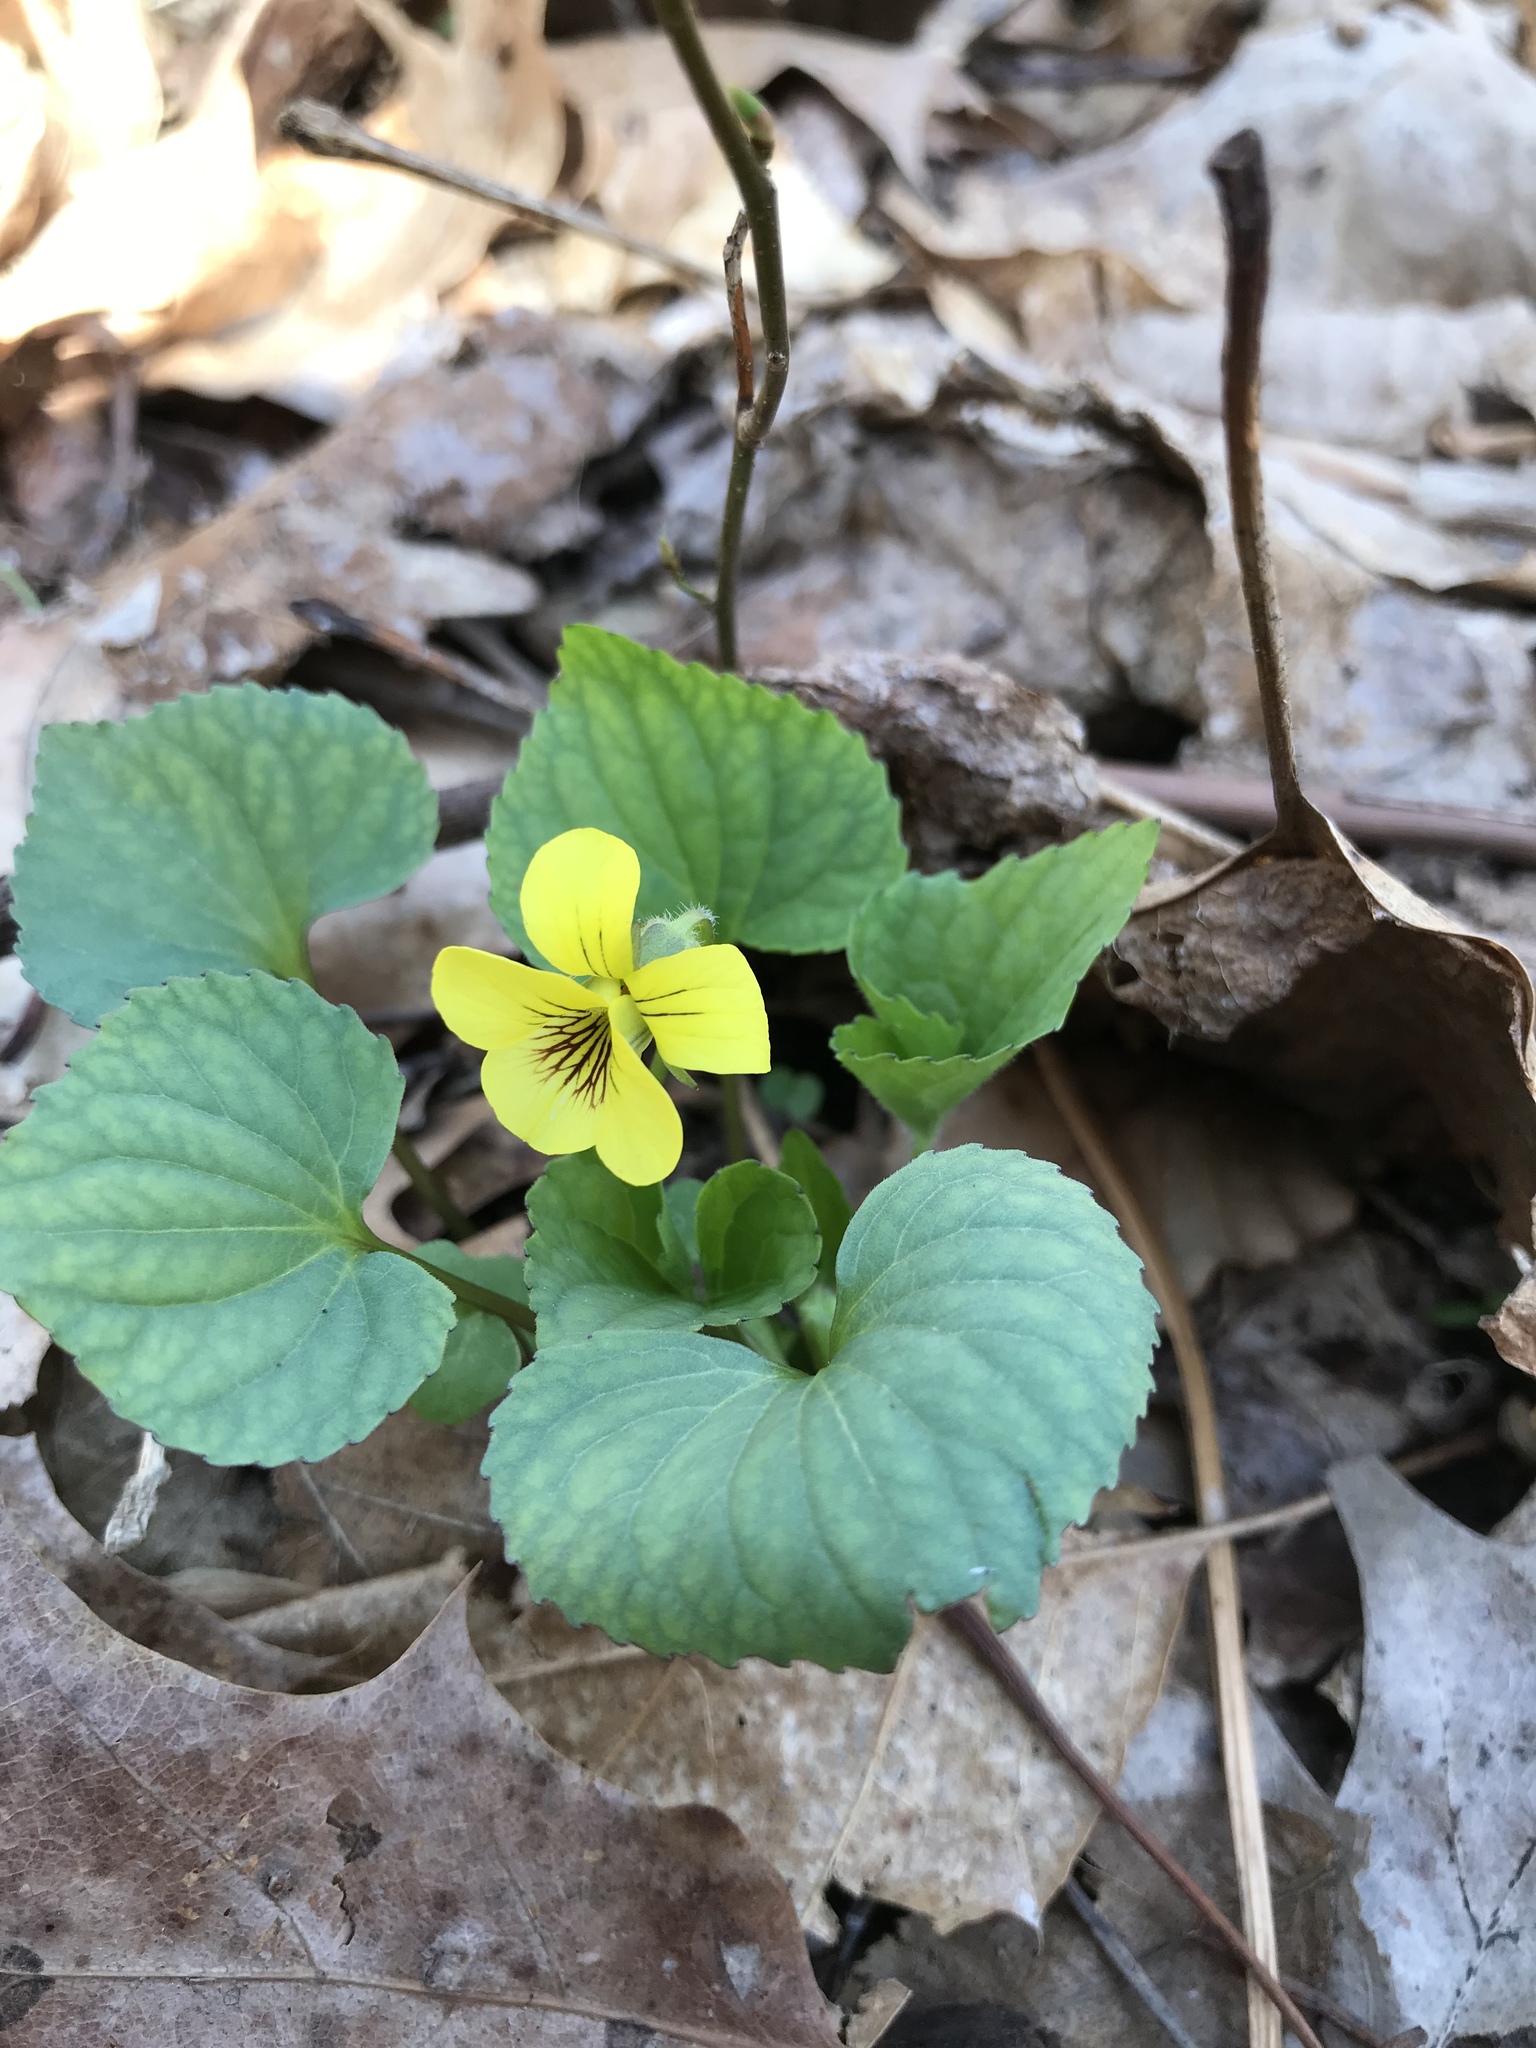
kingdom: Plantae
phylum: Tracheophyta
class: Magnoliopsida
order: Malpighiales
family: Violaceae
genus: Viola
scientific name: Viola eriocarpa
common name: Smooth yellow violet
